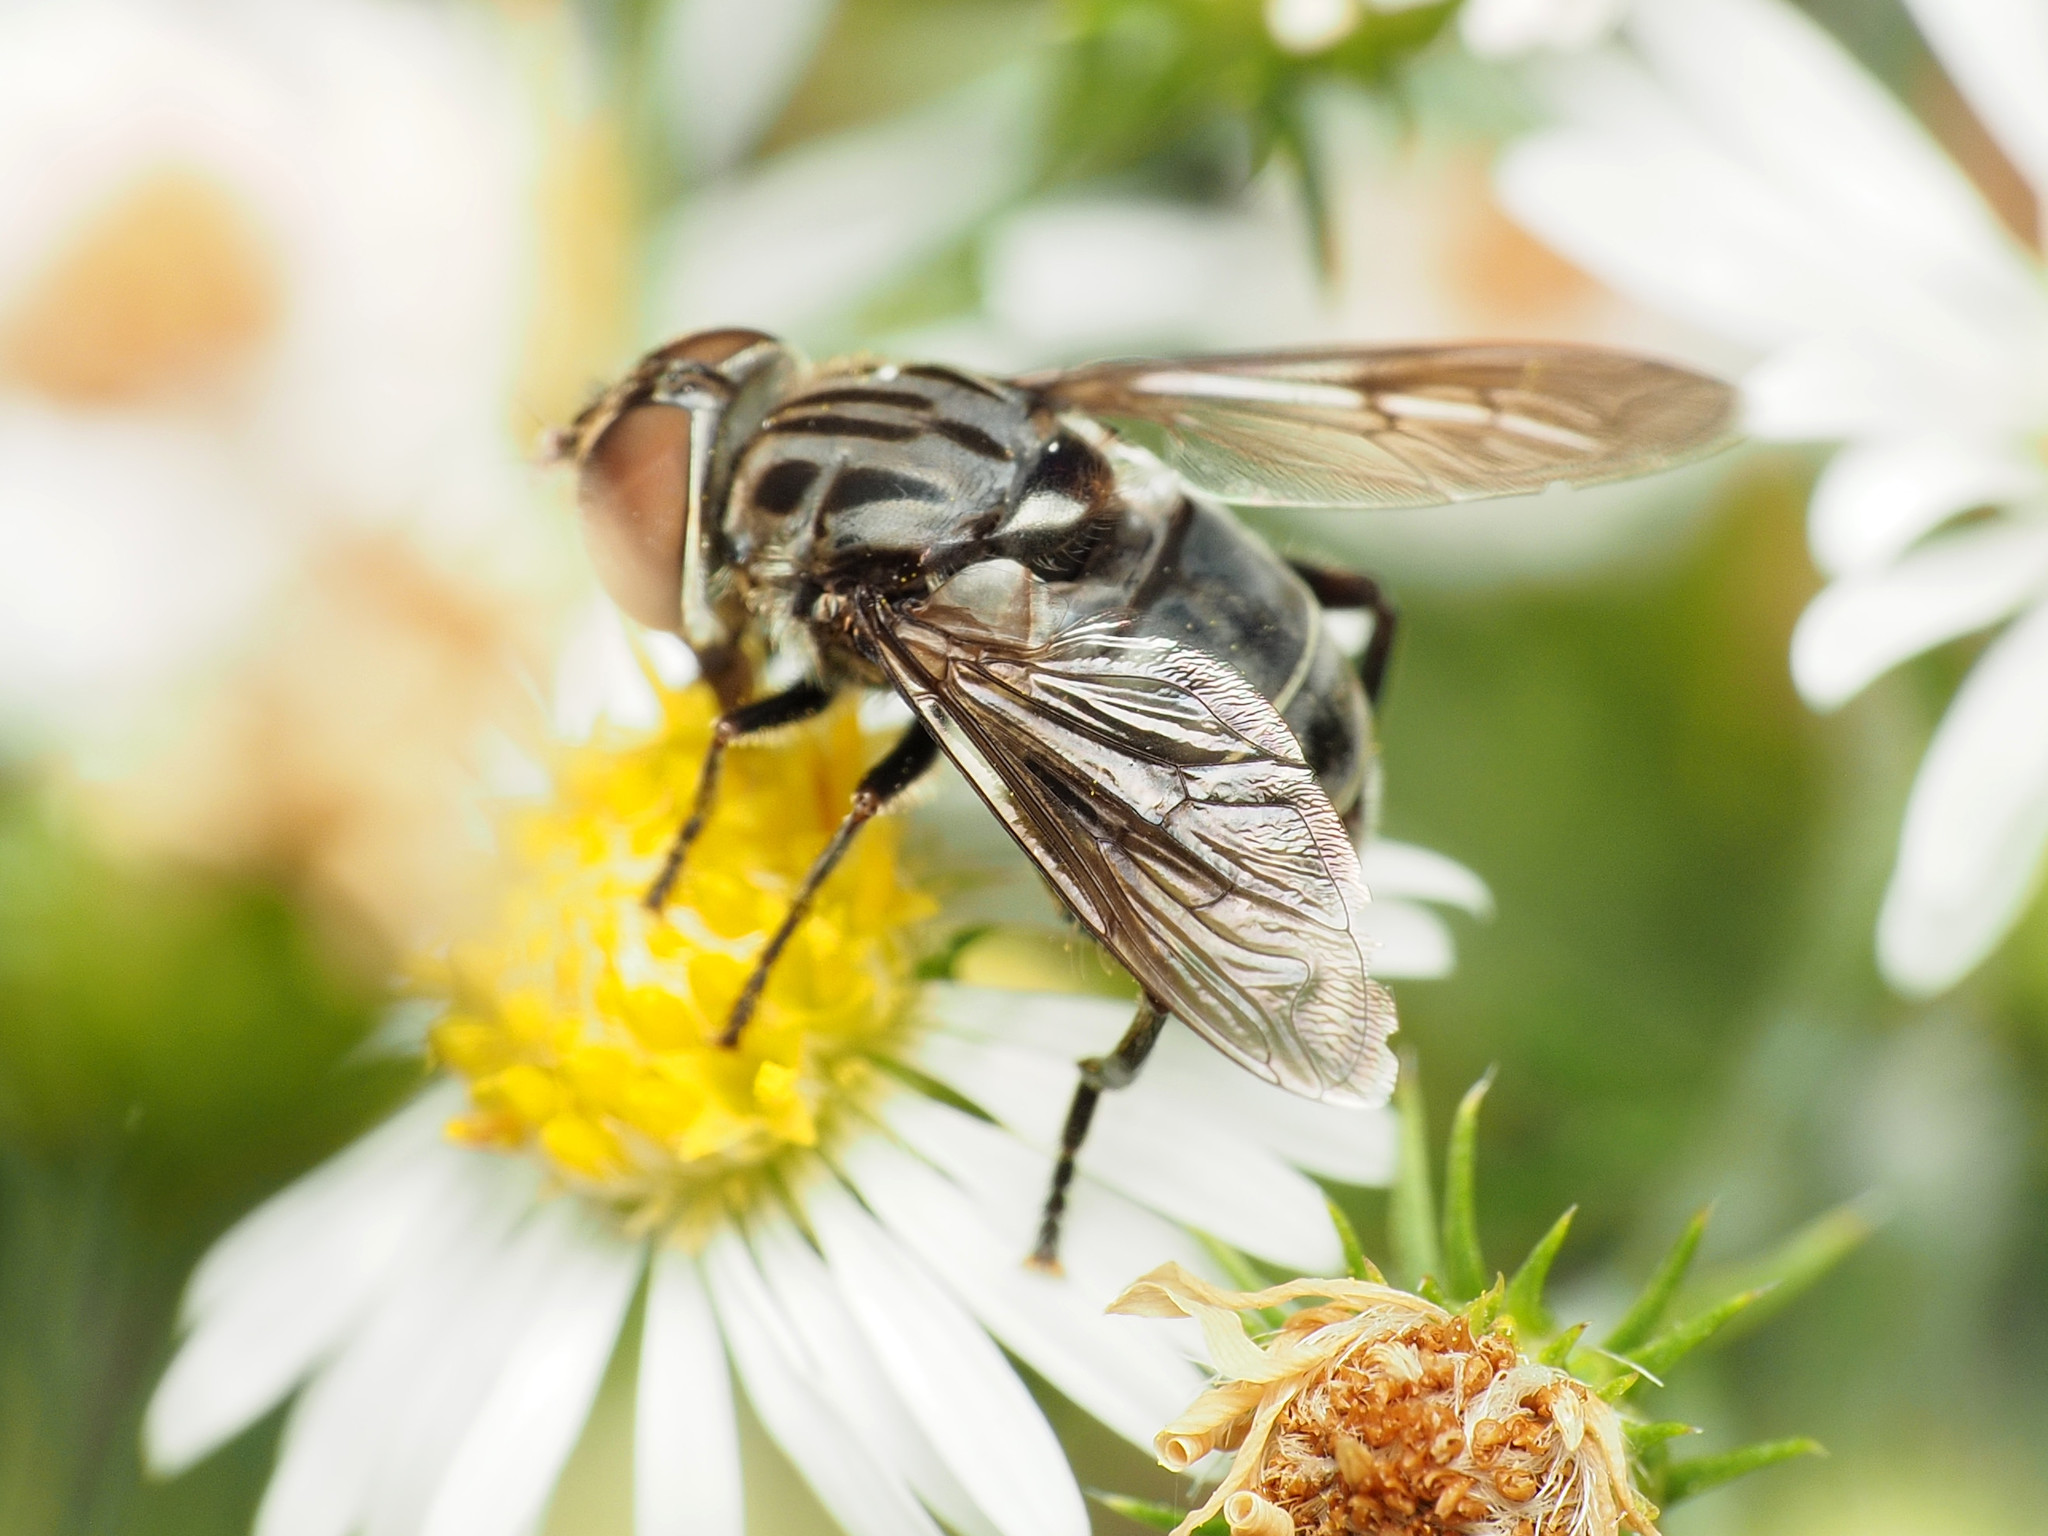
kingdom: Animalia
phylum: Arthropoda
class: Insecta
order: Diptera
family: Syrphidae
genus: Palpada
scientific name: Palpada furcata
